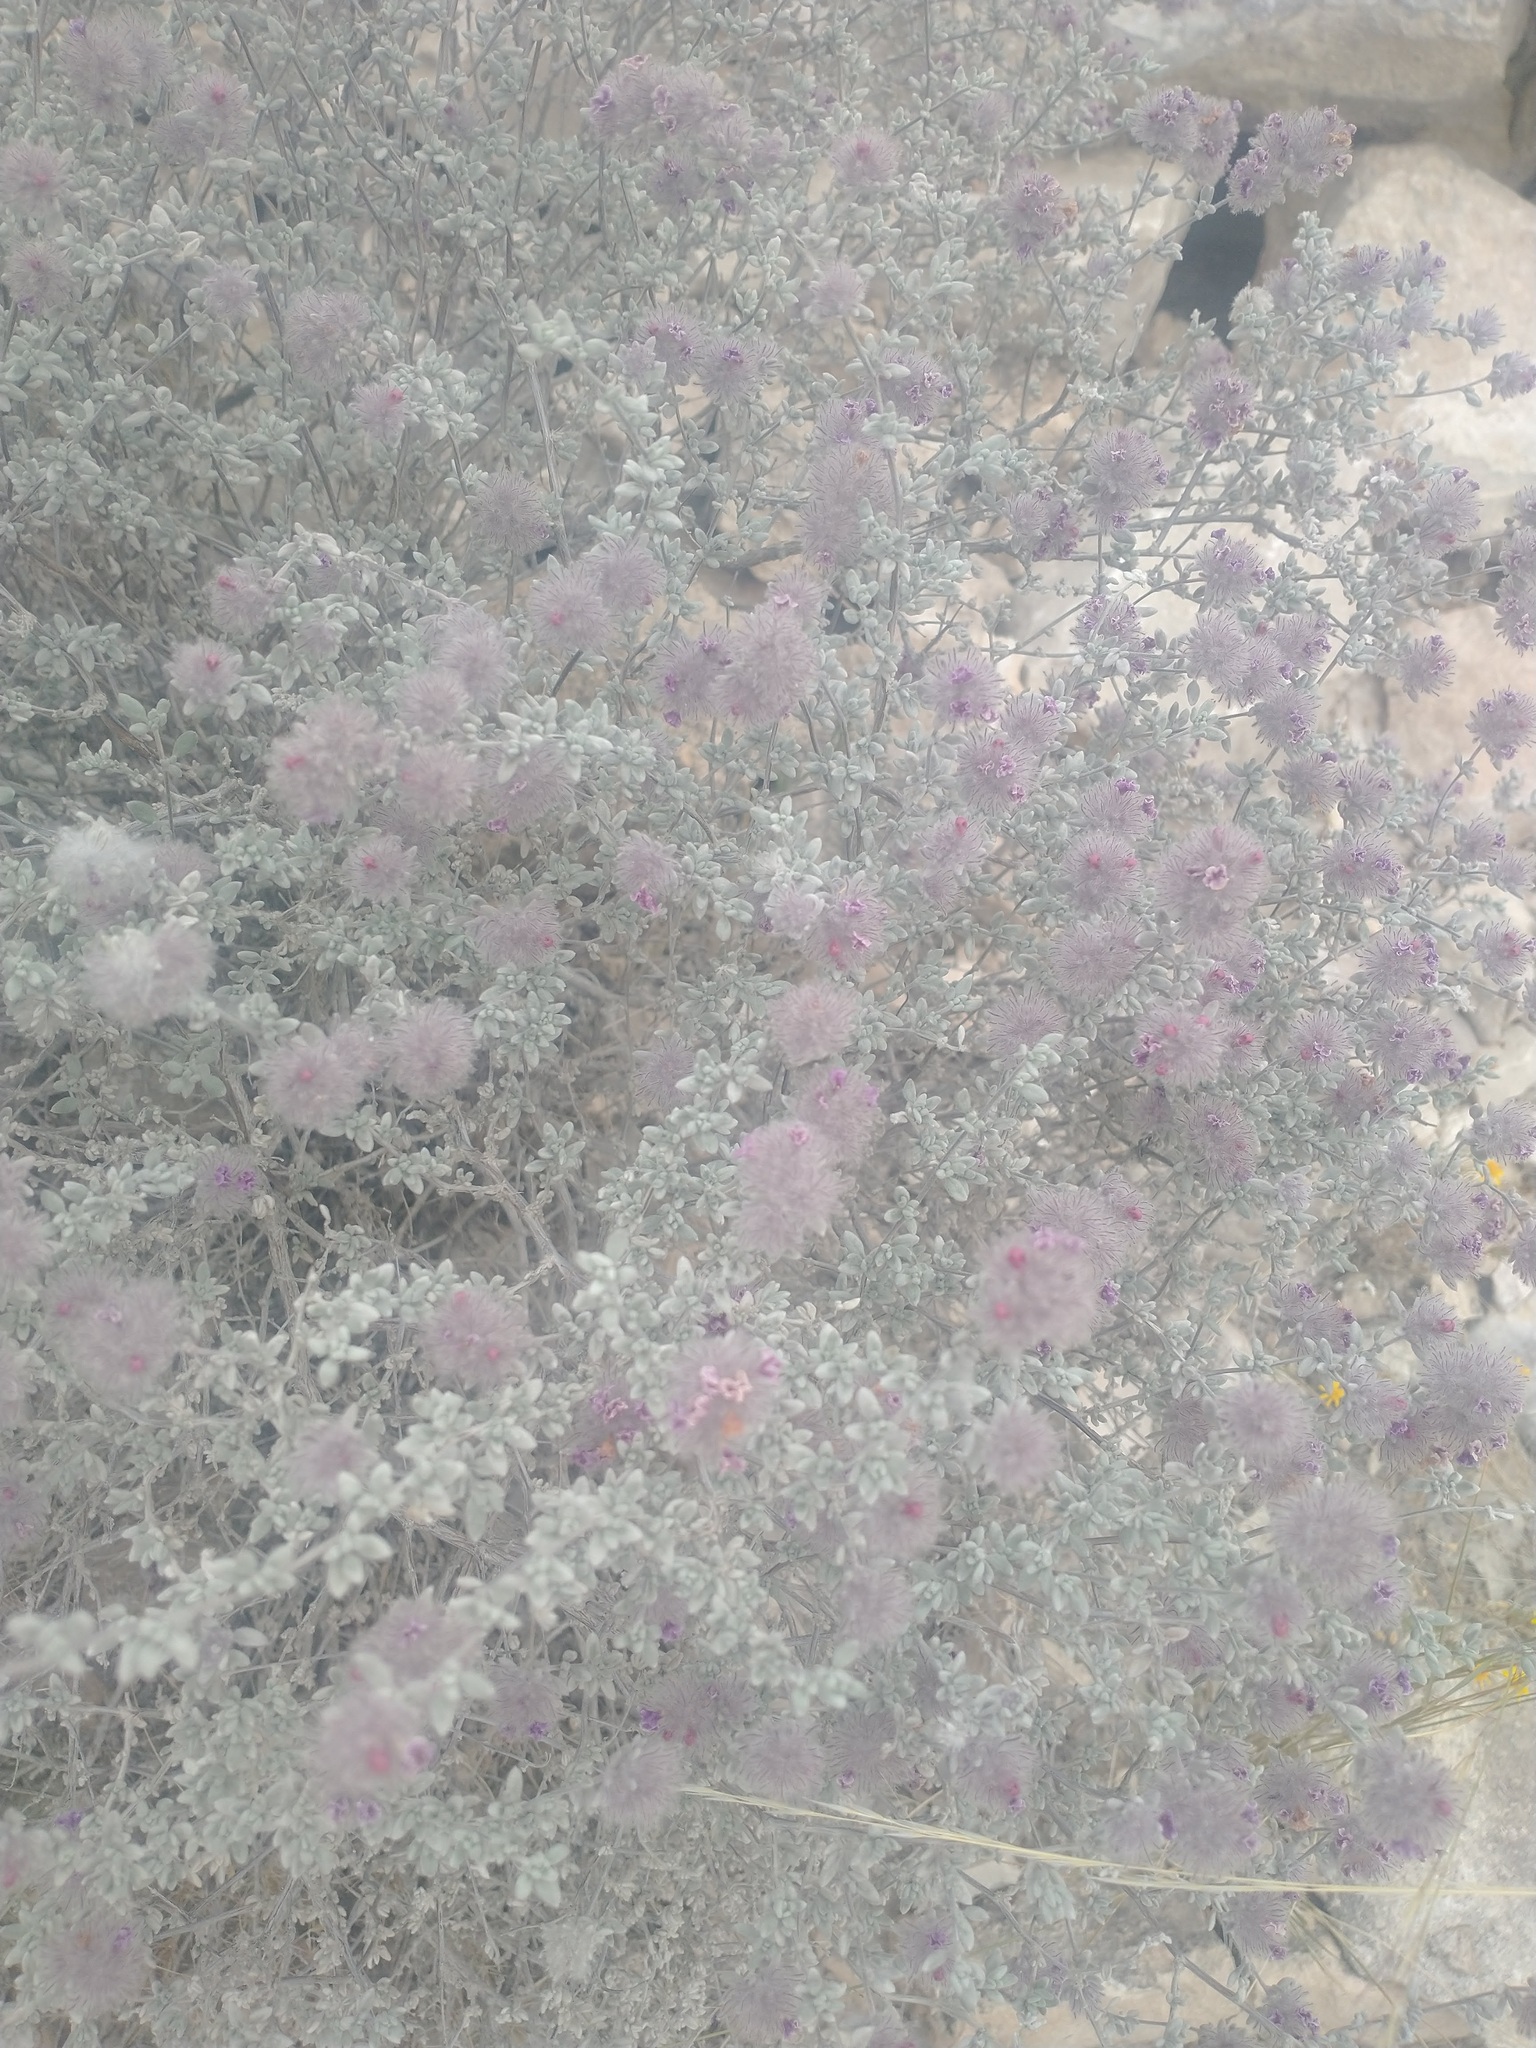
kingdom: Plantae
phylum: Tracheophyta
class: Magnoliopsida
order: Boraginales
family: Ehretiaceae
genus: Tiquilia
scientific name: Tiquilia greggii
